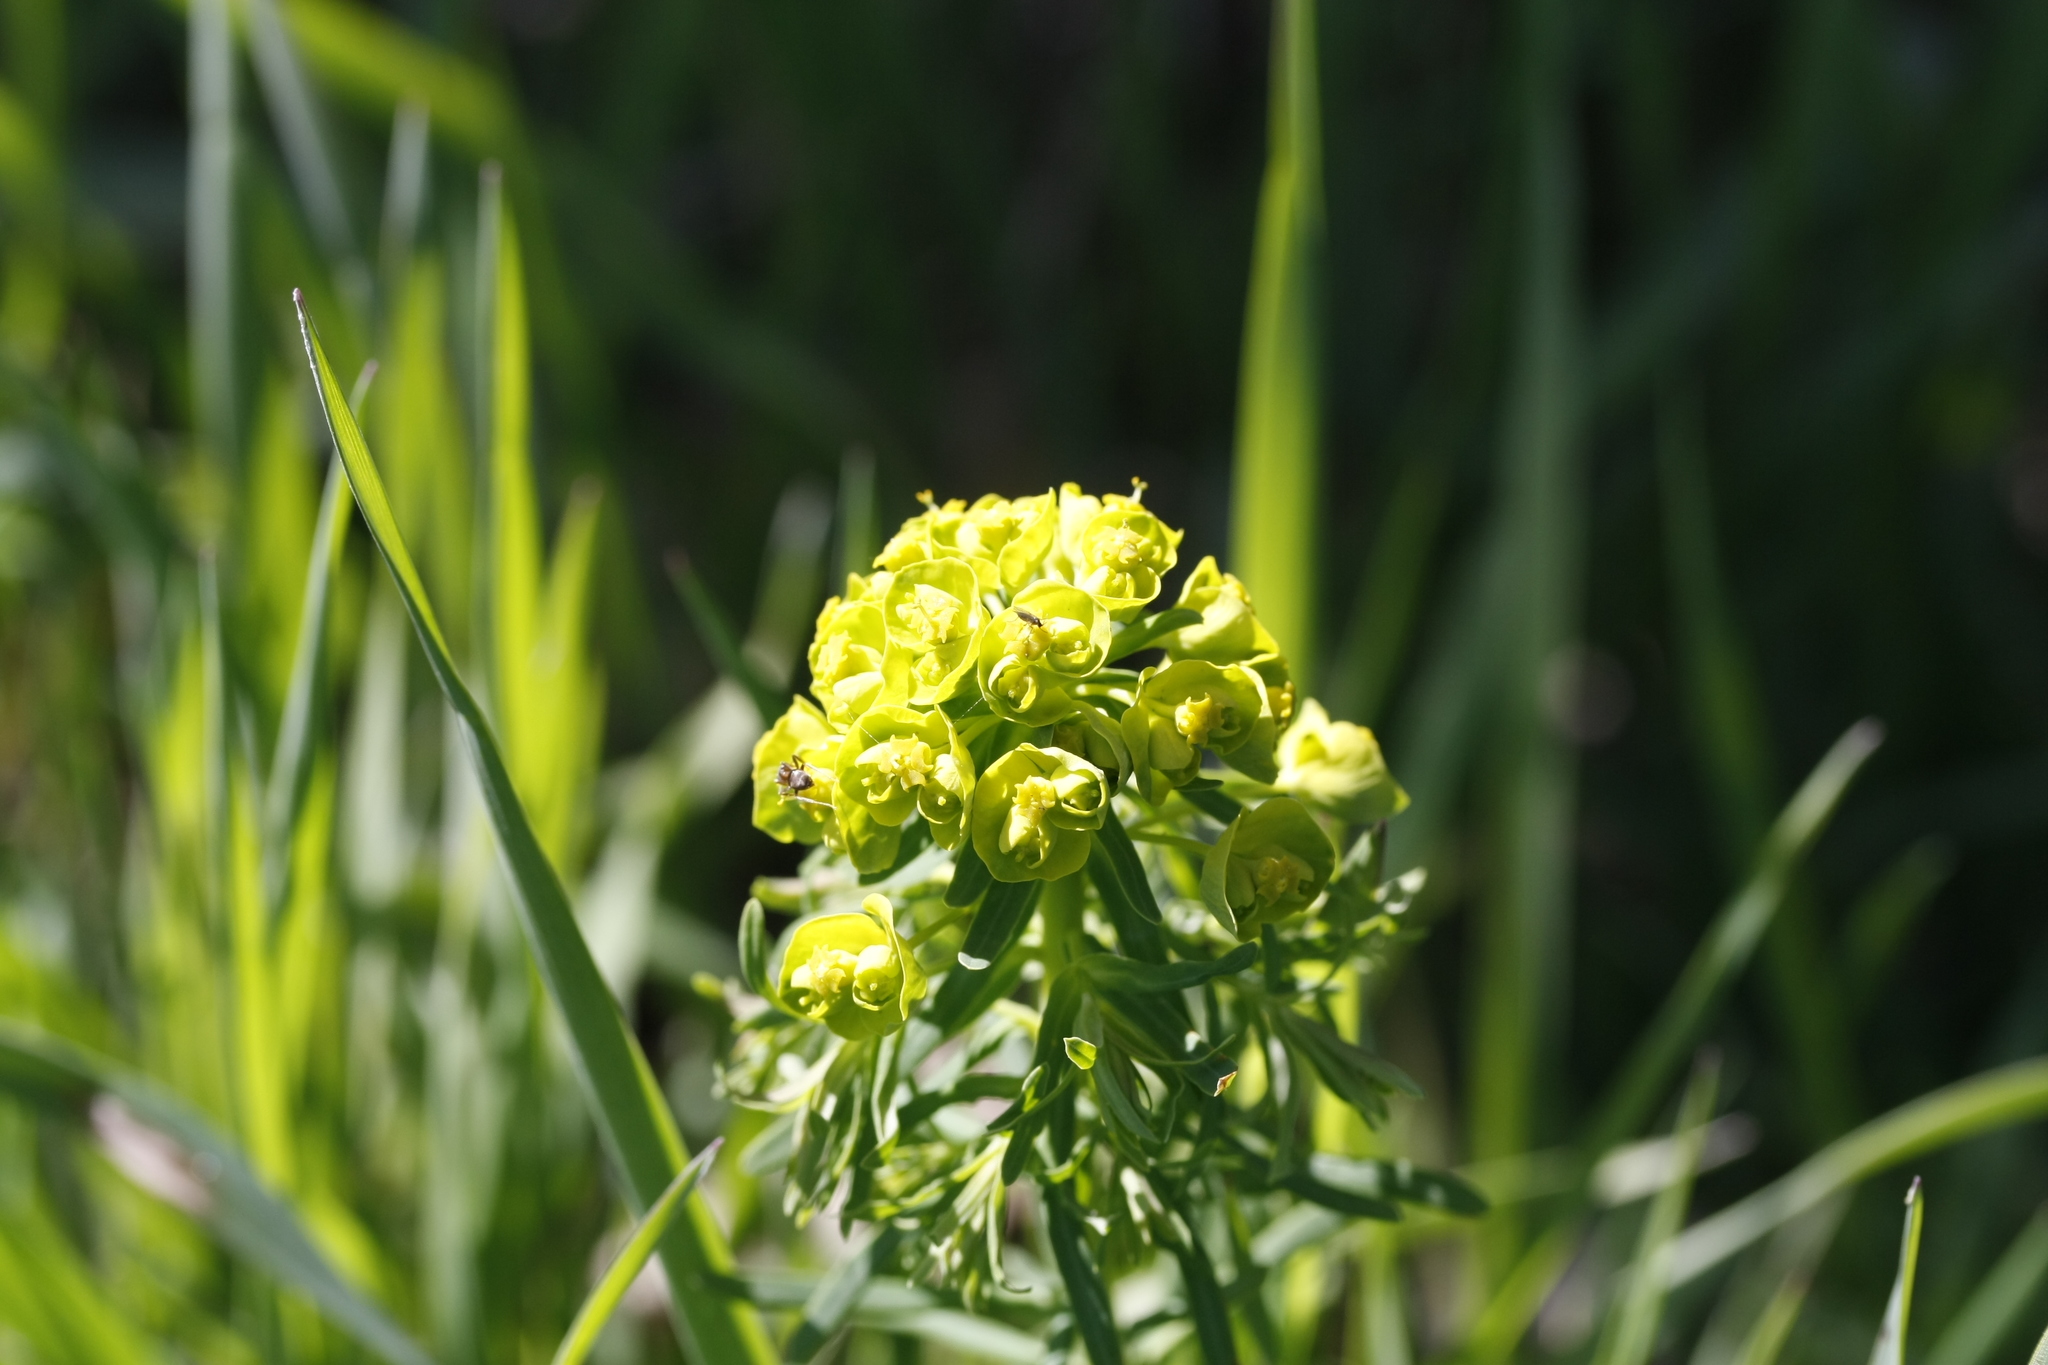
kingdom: Plantae
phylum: Tracheophyta
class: Magnoliopsida
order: Malpighiales
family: Euphorbiaceae
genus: Euphorbia
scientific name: Euphorbia cyparissias
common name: Cypress spurge
